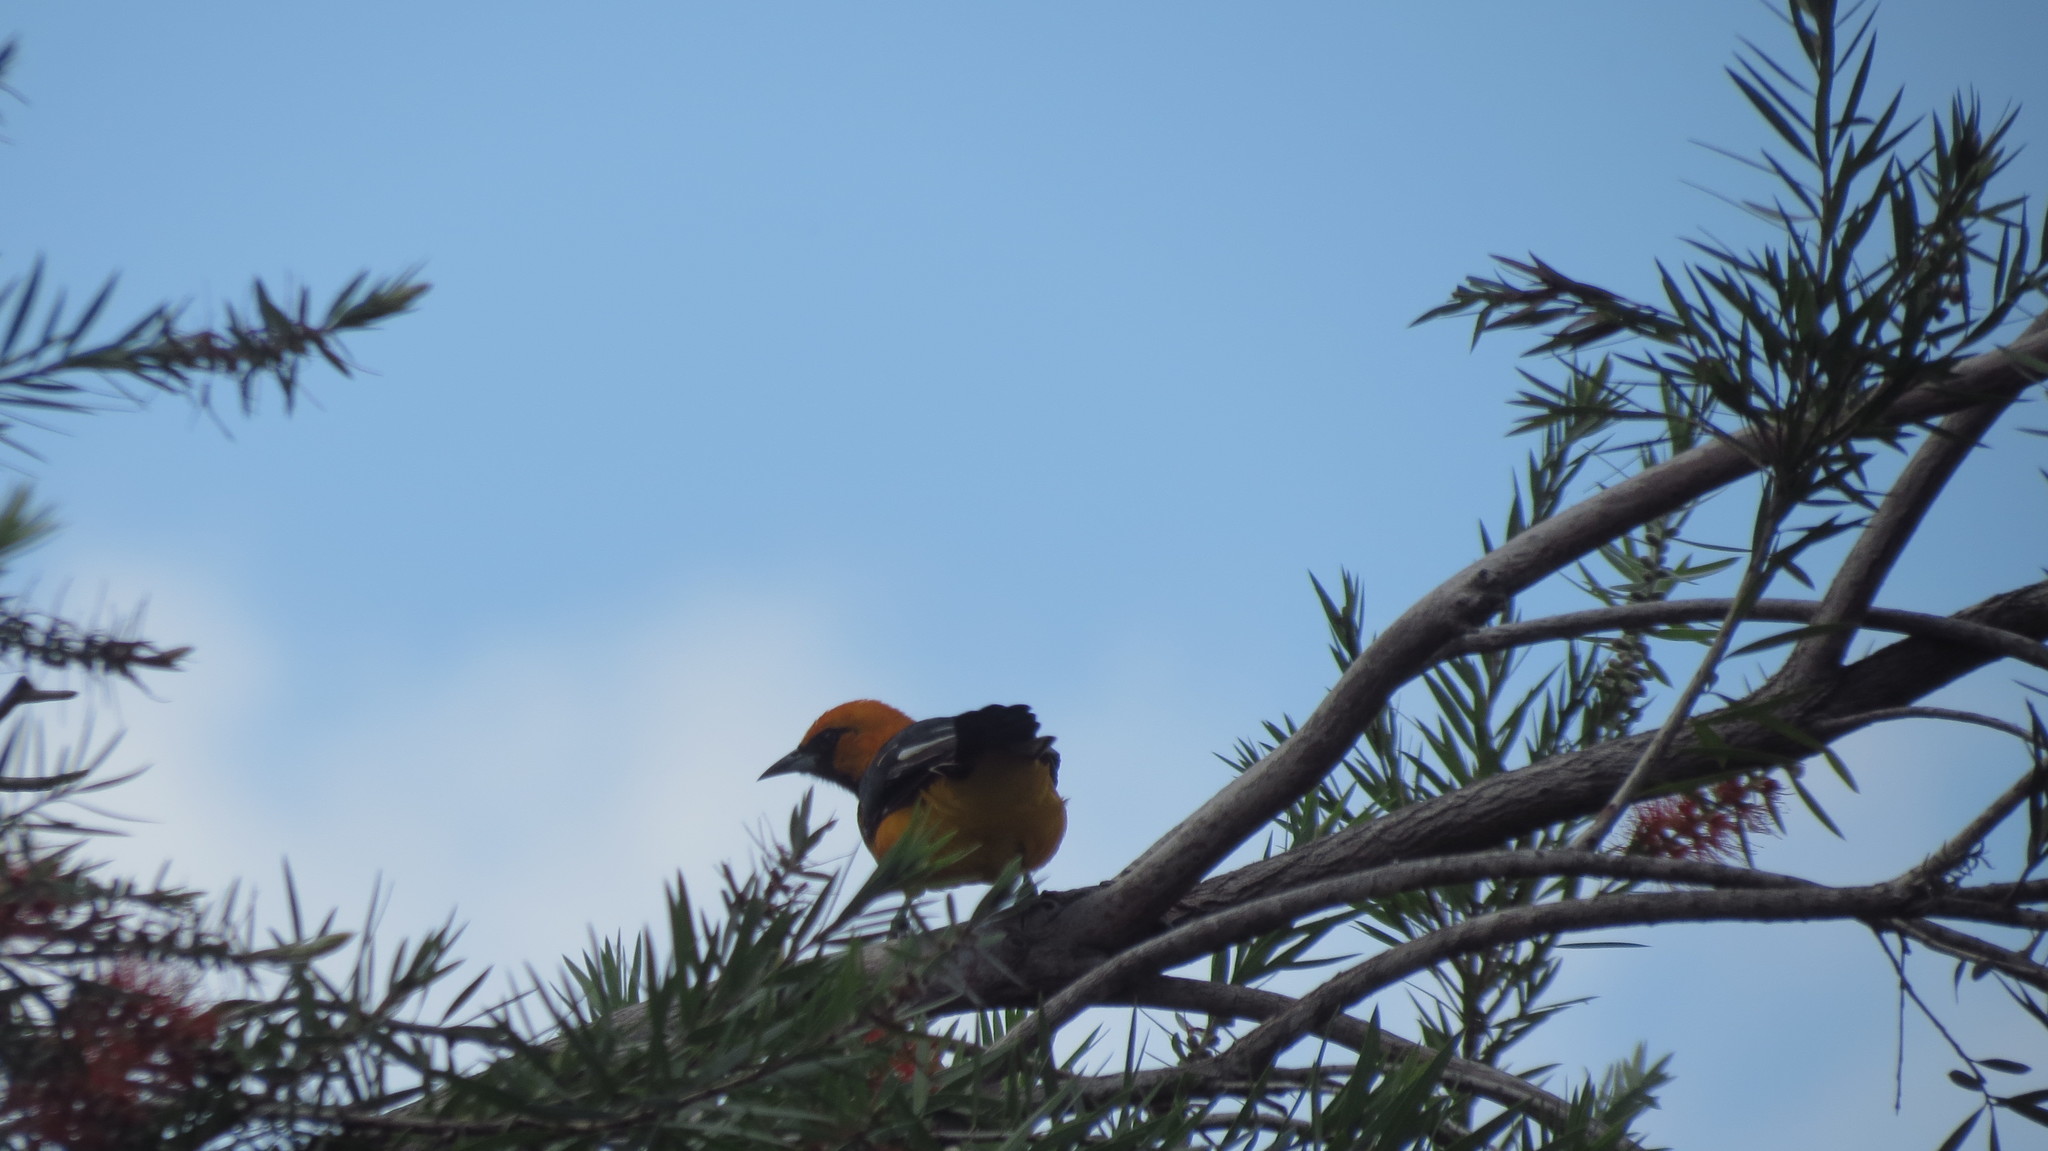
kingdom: Animalia
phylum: Chordata
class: Aves
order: Passeriformes
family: Icteridae
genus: Icterus
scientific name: Icterus gularis
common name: Altamira oriole
